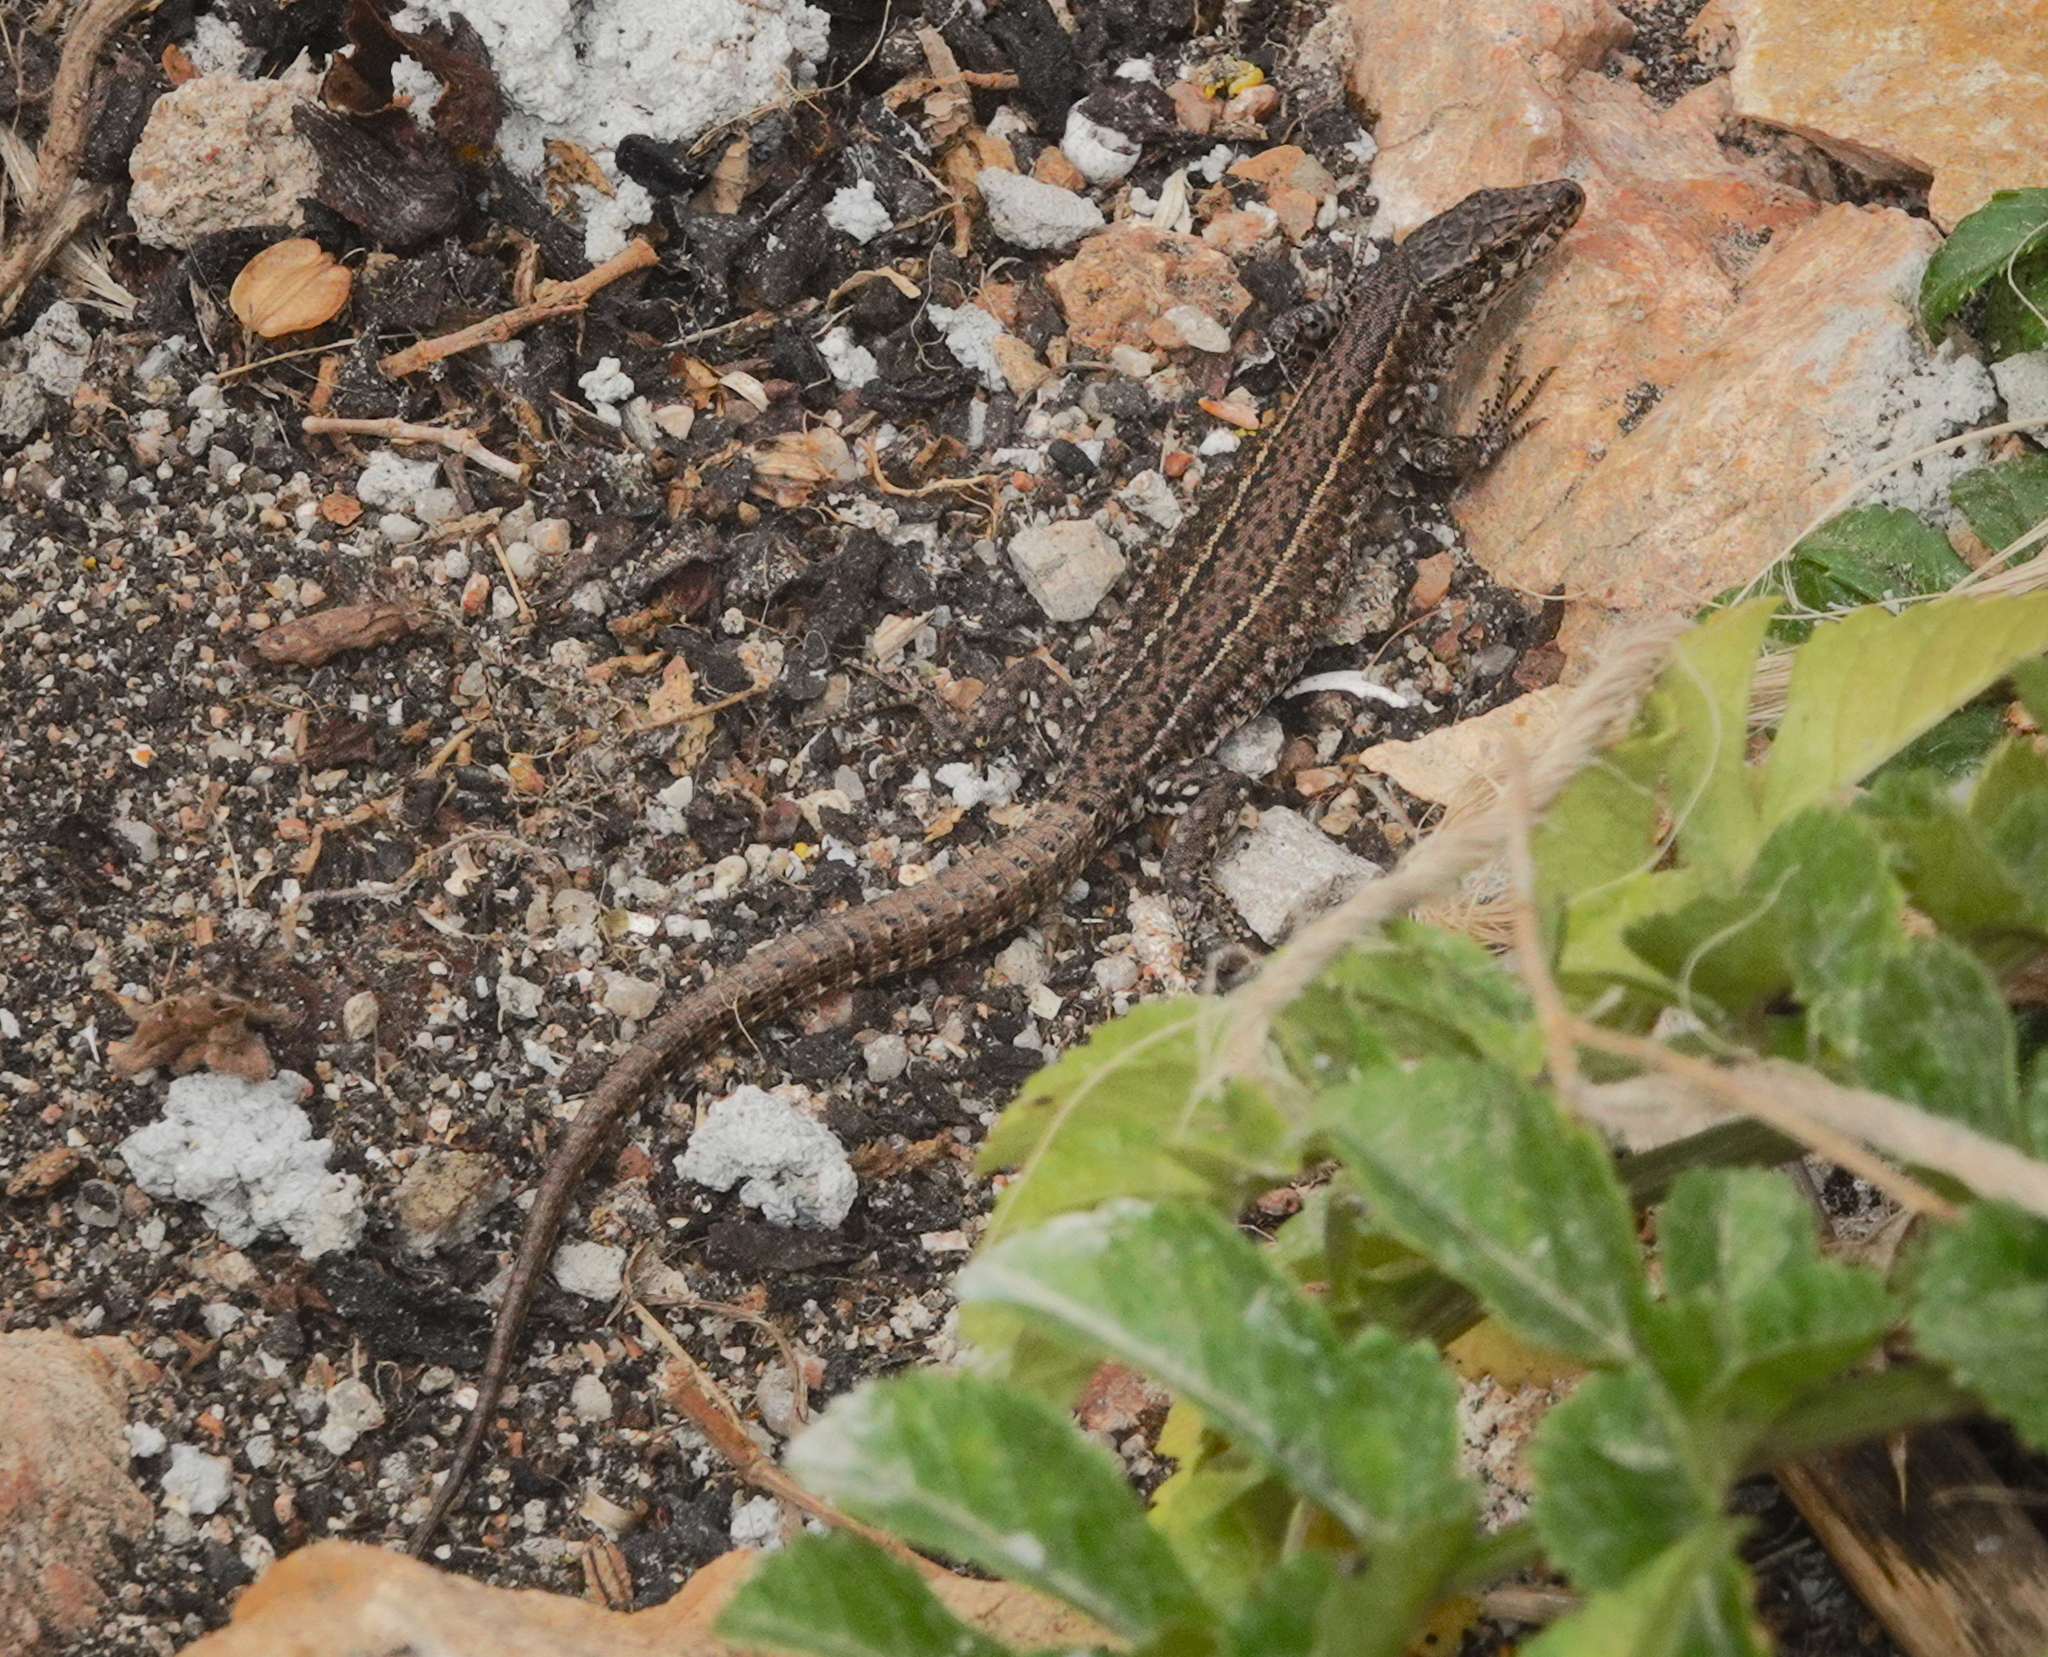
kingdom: Animalia
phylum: Chordata
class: Squamata
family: Lacertidae
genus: Podarcis
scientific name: Podarcis carbonelli
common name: Carbonelli's wall lizard
